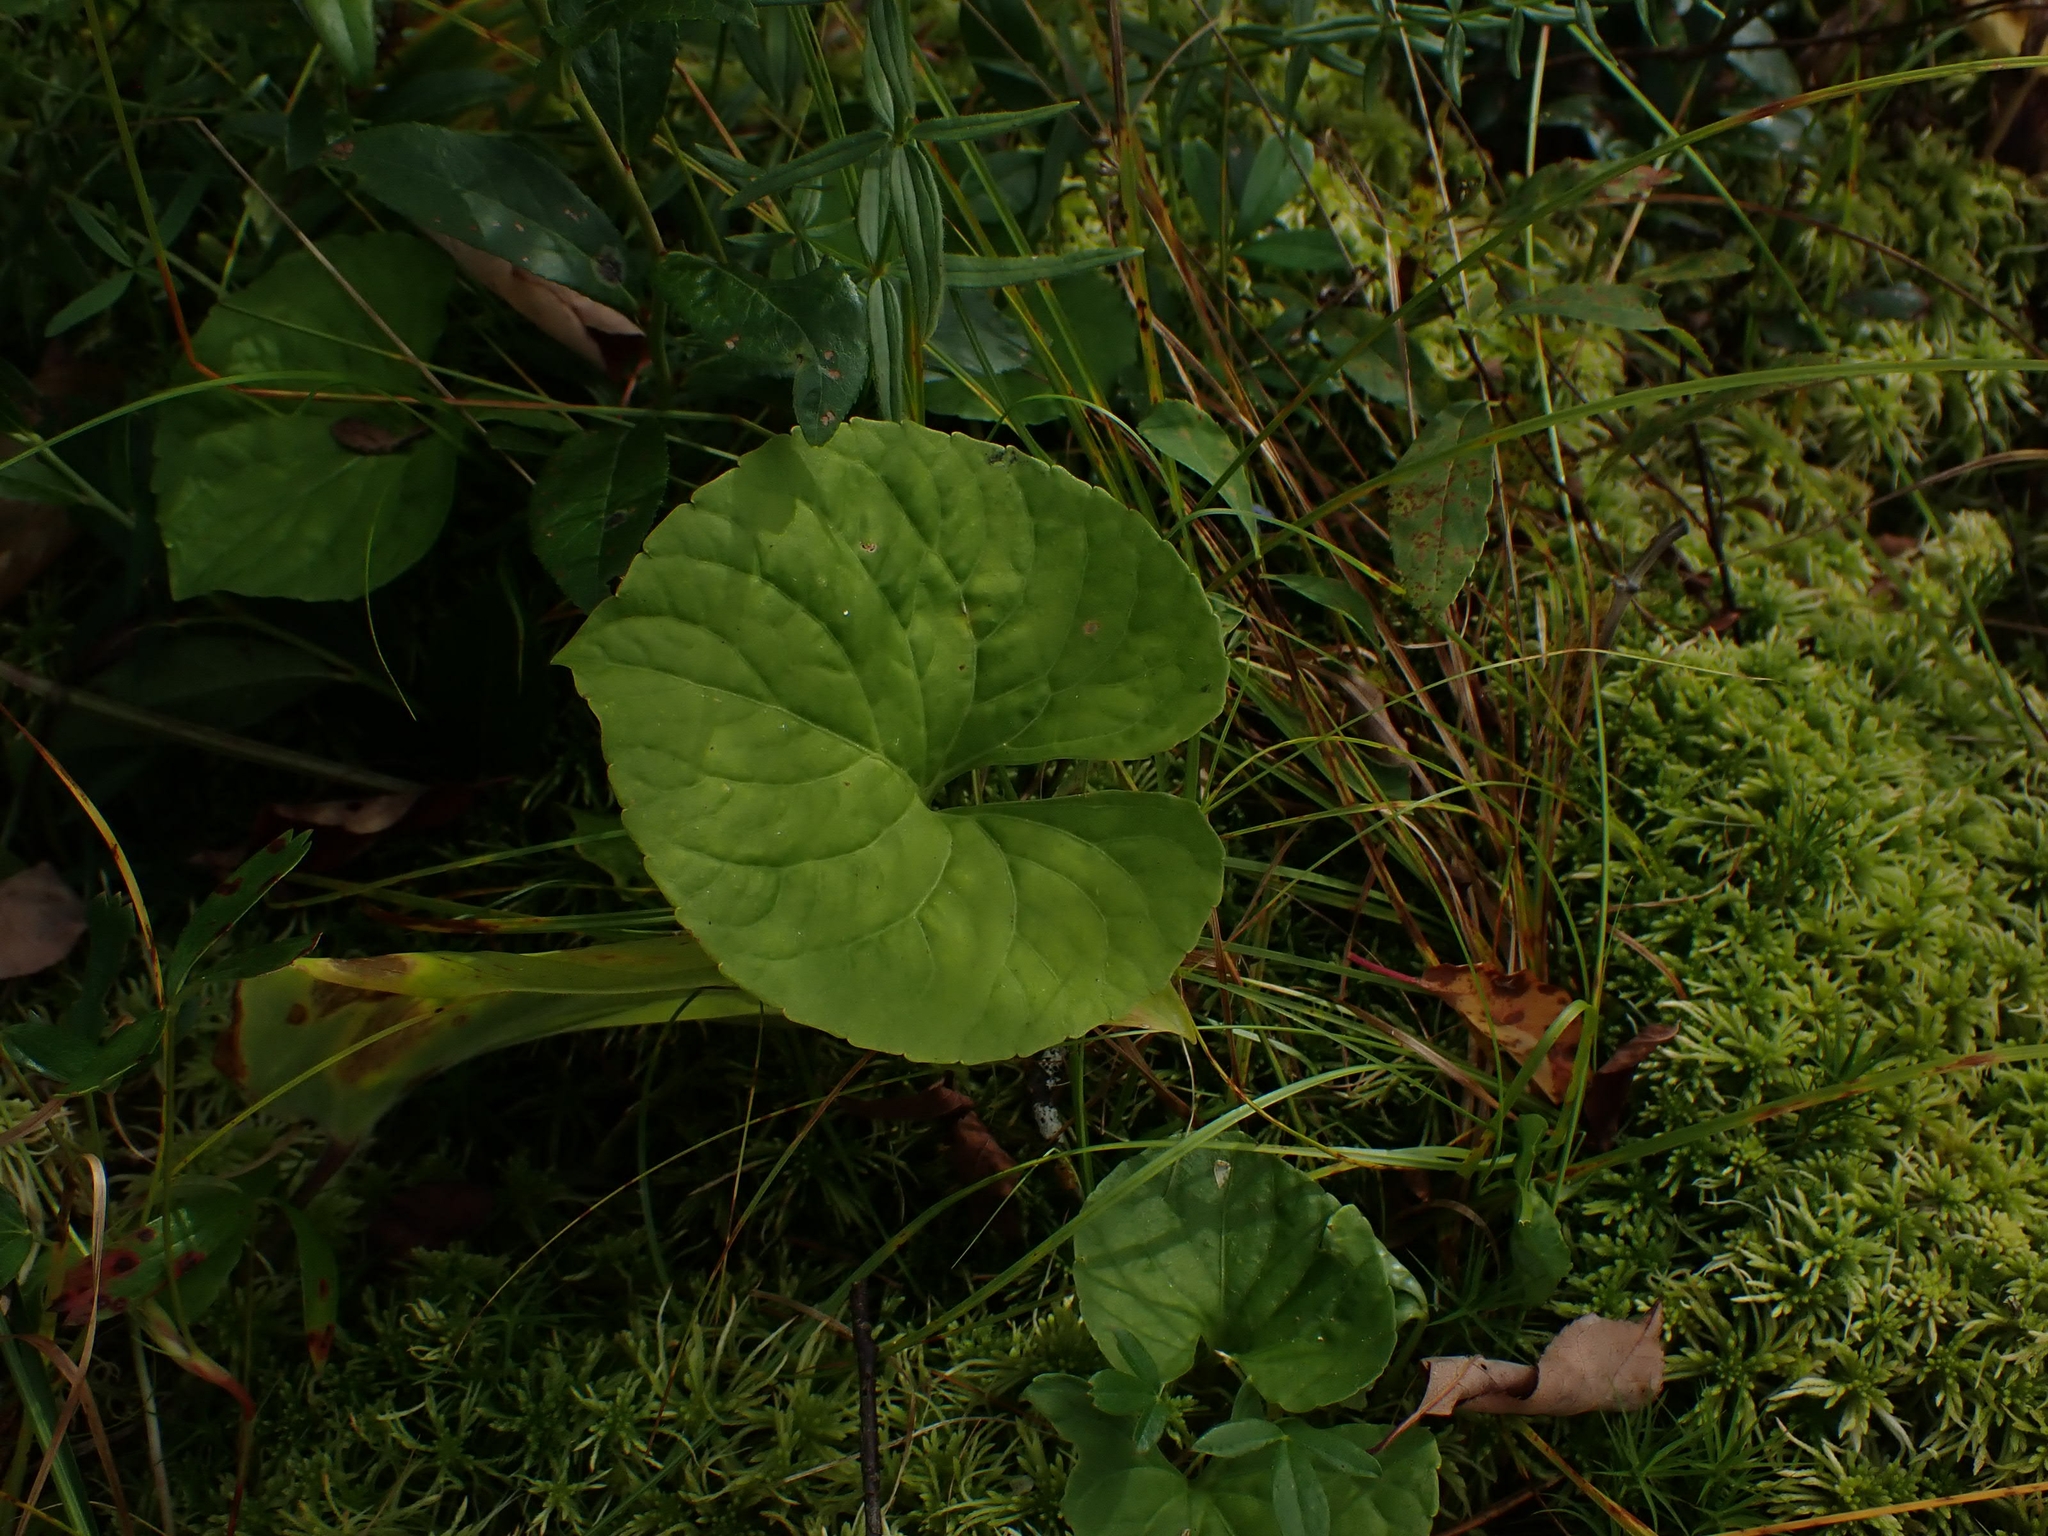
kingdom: Plantae
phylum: Tracheophyta
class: Magnoliopsida
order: Malpighiales
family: Violaceae
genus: Viola
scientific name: Viola renifolia
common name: Kidney-leaf violet
